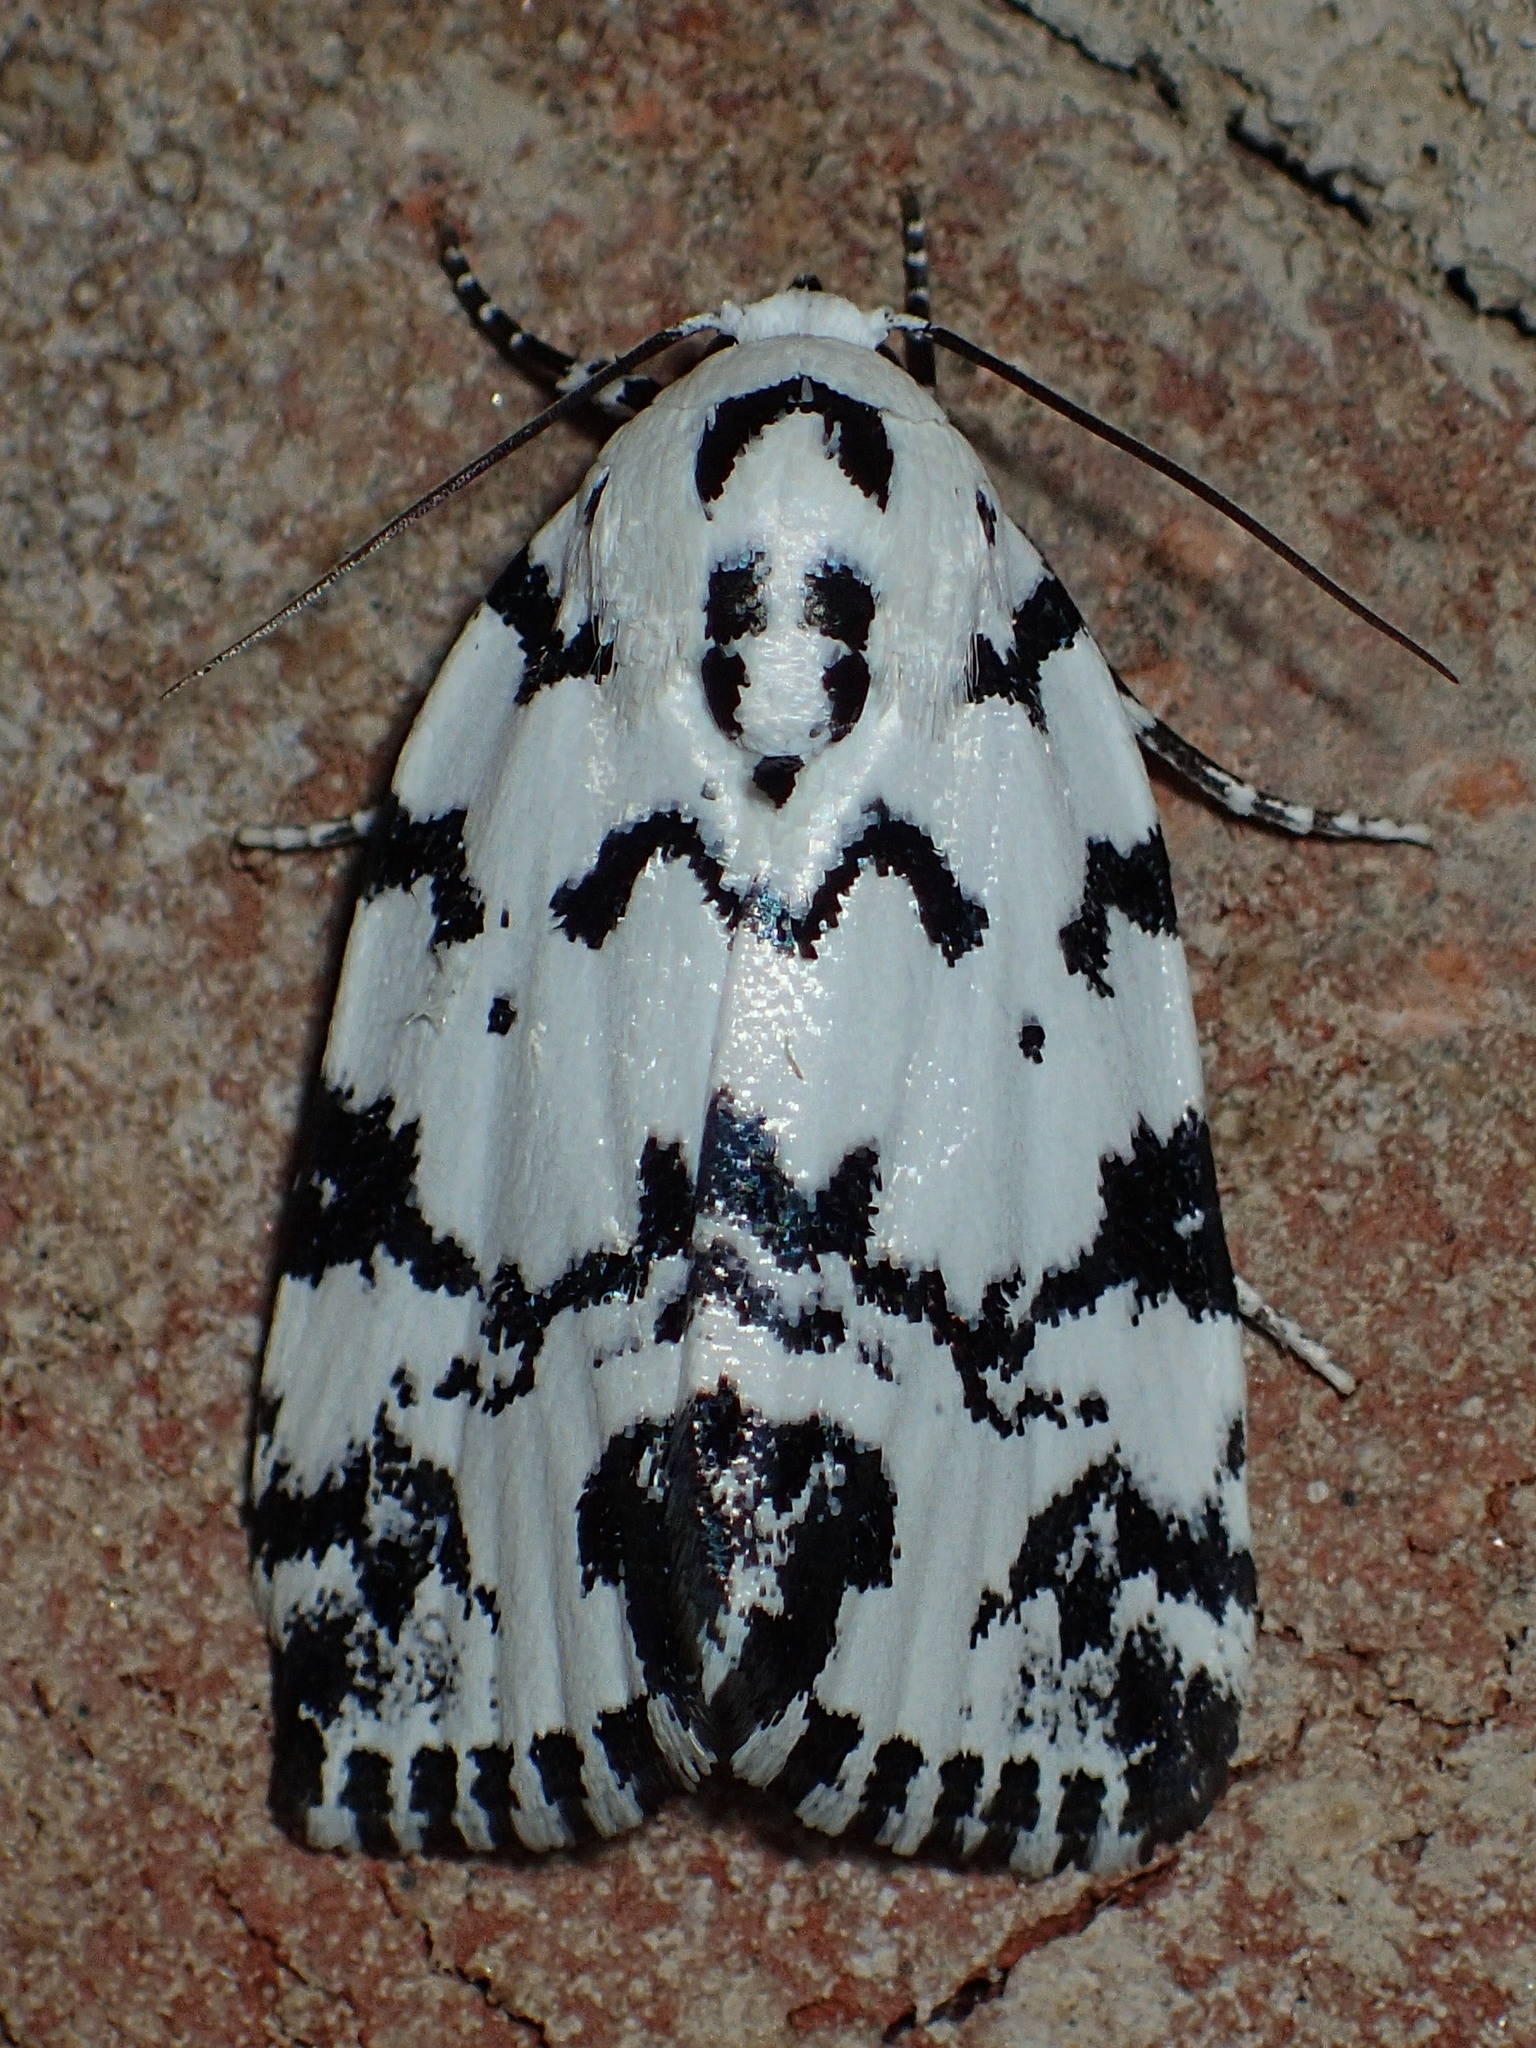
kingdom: Animalia
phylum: Arthropoda
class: Insecta
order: Lepidoptera
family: Noctuidae
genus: Polygrammate
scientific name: Polygrammate hebraeicum
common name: Hebrew moth
